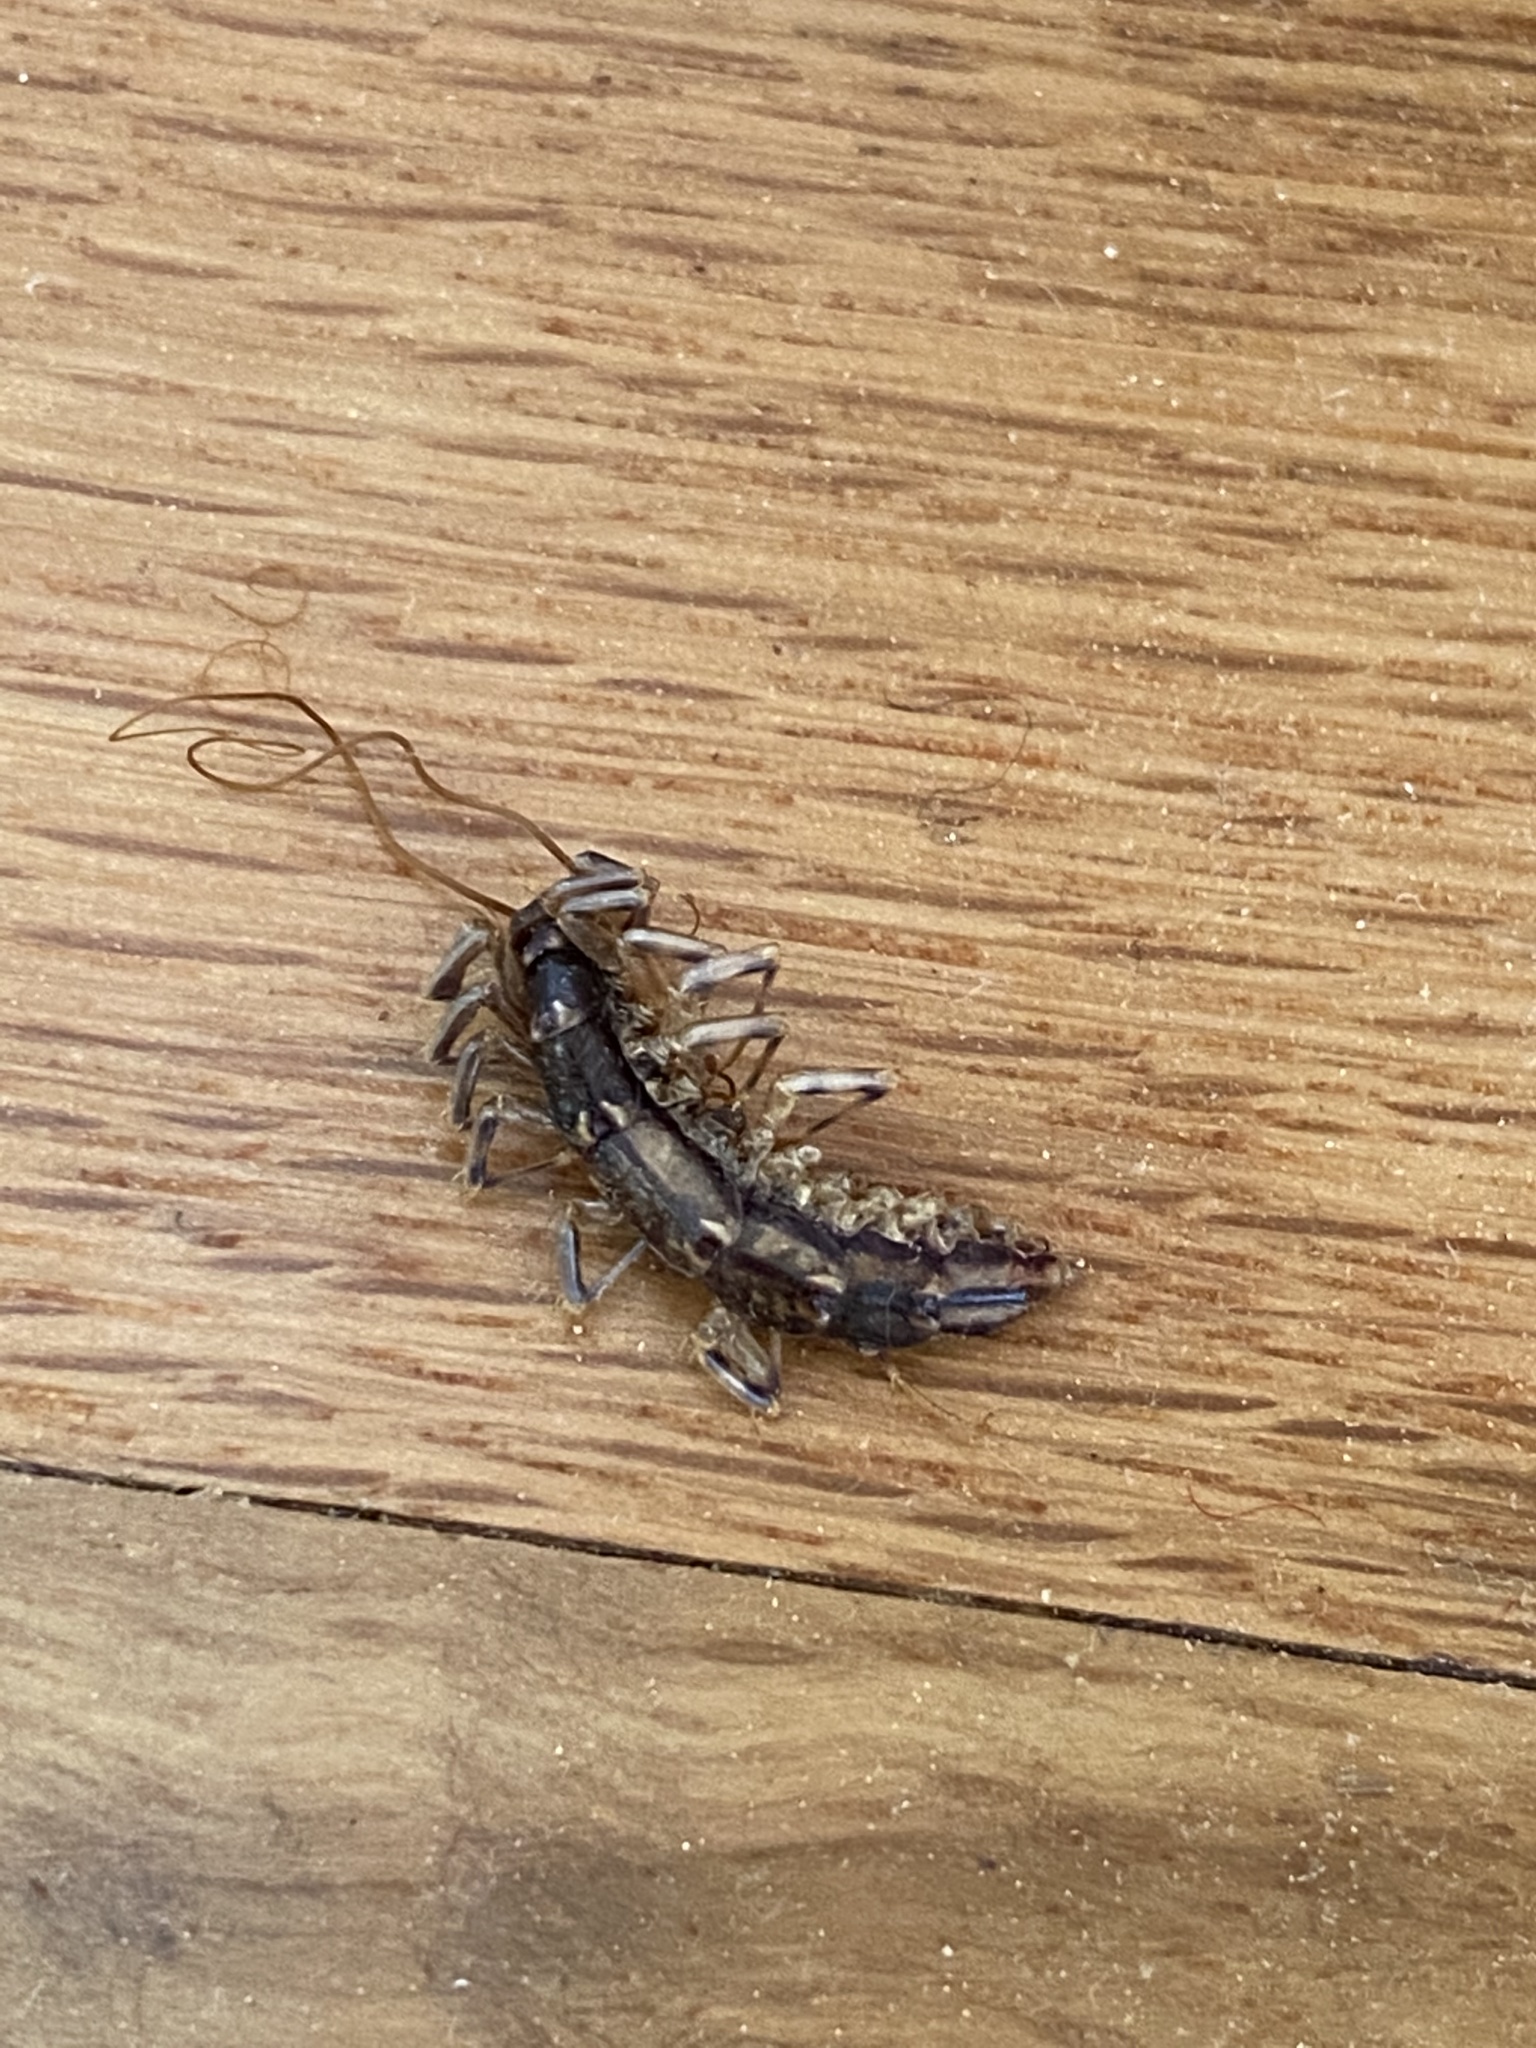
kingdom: Animalia
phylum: Arthropoda
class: Chilopoda
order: Scutigeromorpha
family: Scutigeridae
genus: Scutigera
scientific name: Scutigera coleoptrata
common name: House centipede
